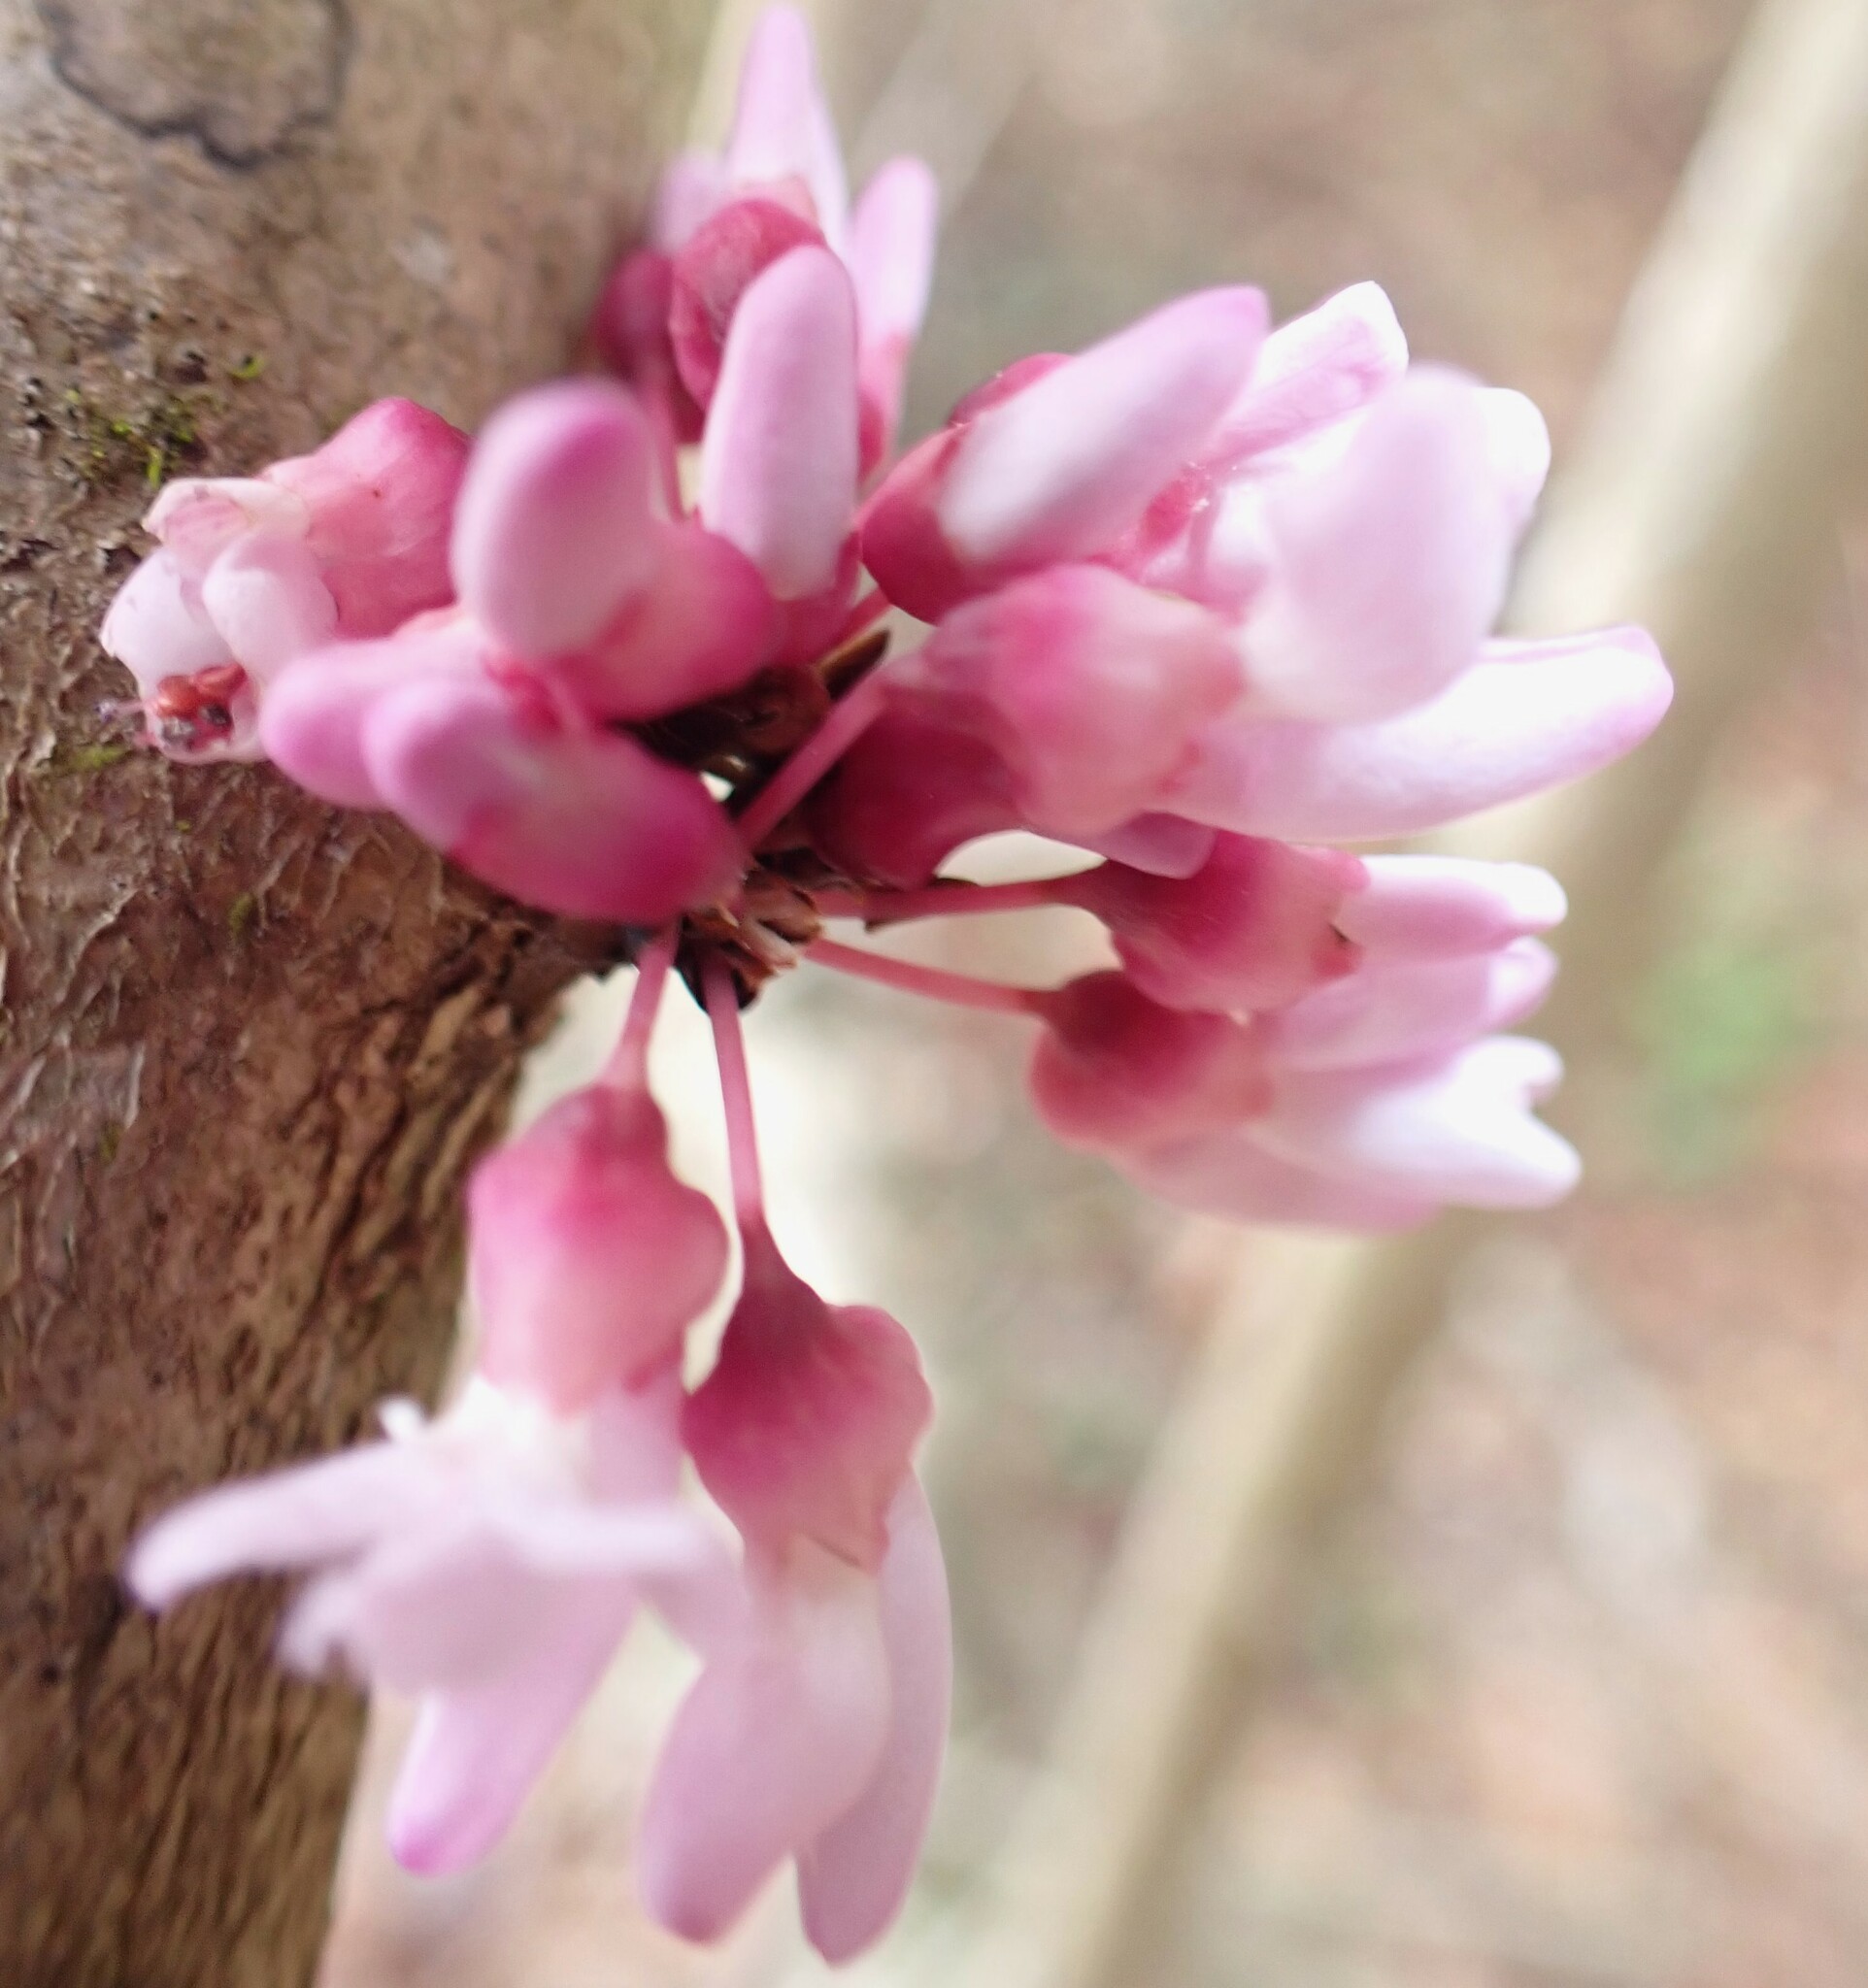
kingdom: Plantae
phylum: Tracheophyta
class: Magnoliopsida
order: Fabales
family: Fabaceae
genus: Cercis
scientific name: Cercis canadensis
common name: Eastern redbud
